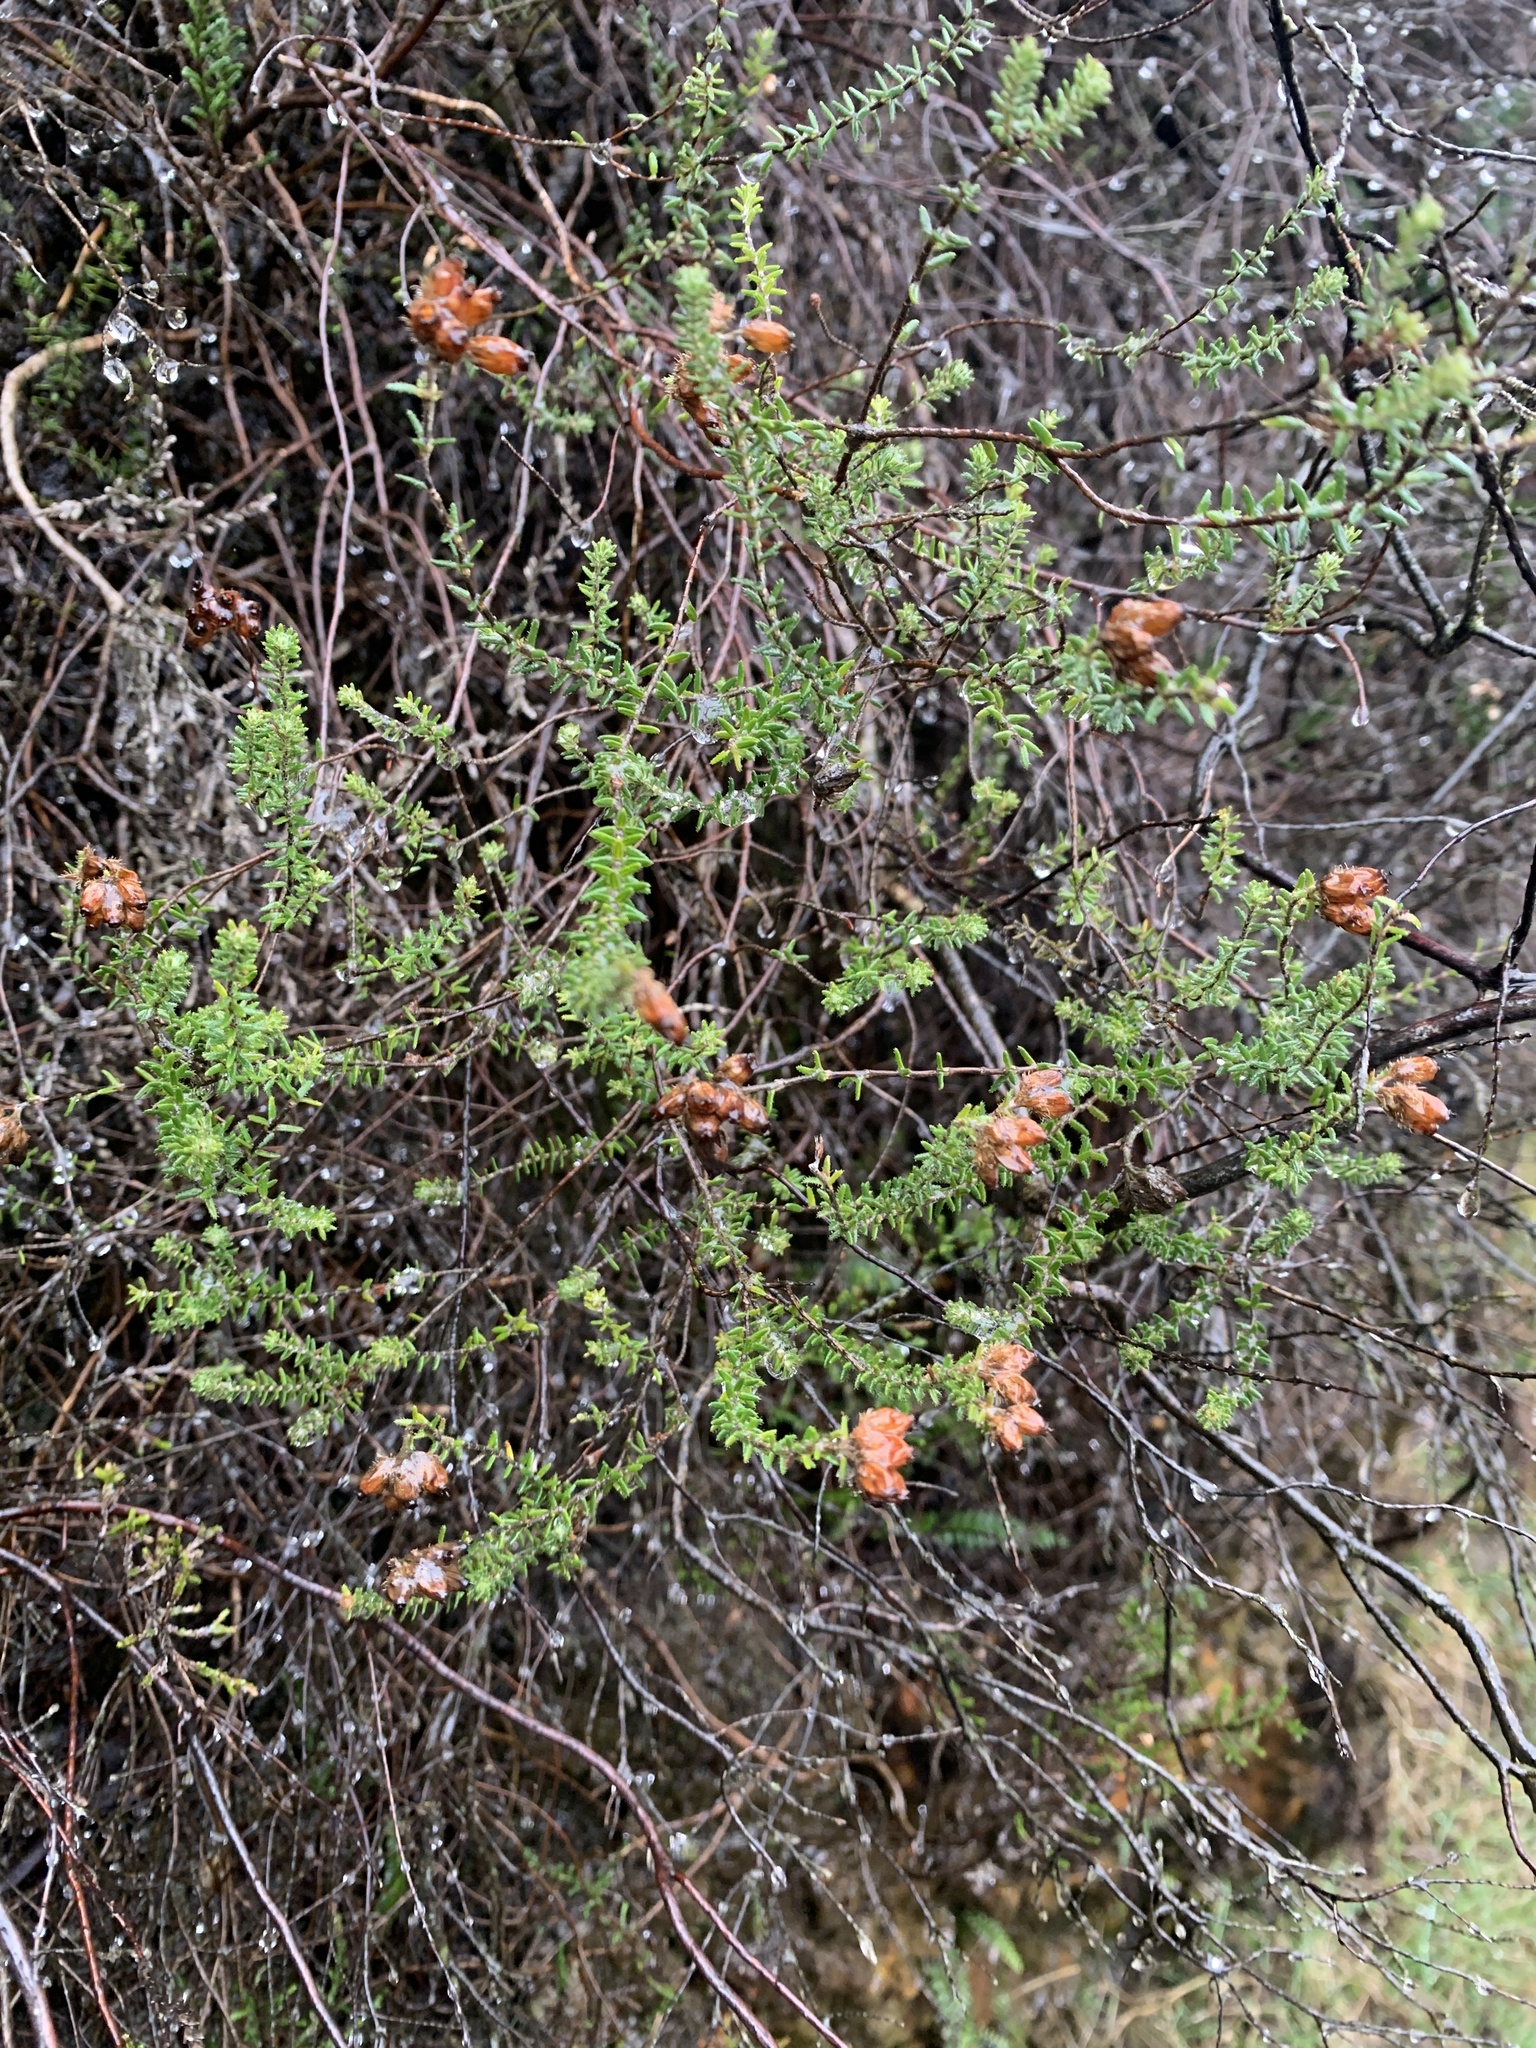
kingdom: Plantae
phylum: Tracheophyta
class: Magnoliopsida
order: Ericales
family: Ericaceae
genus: Erica
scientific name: Erica tetralix
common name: Cross-leaved heath
